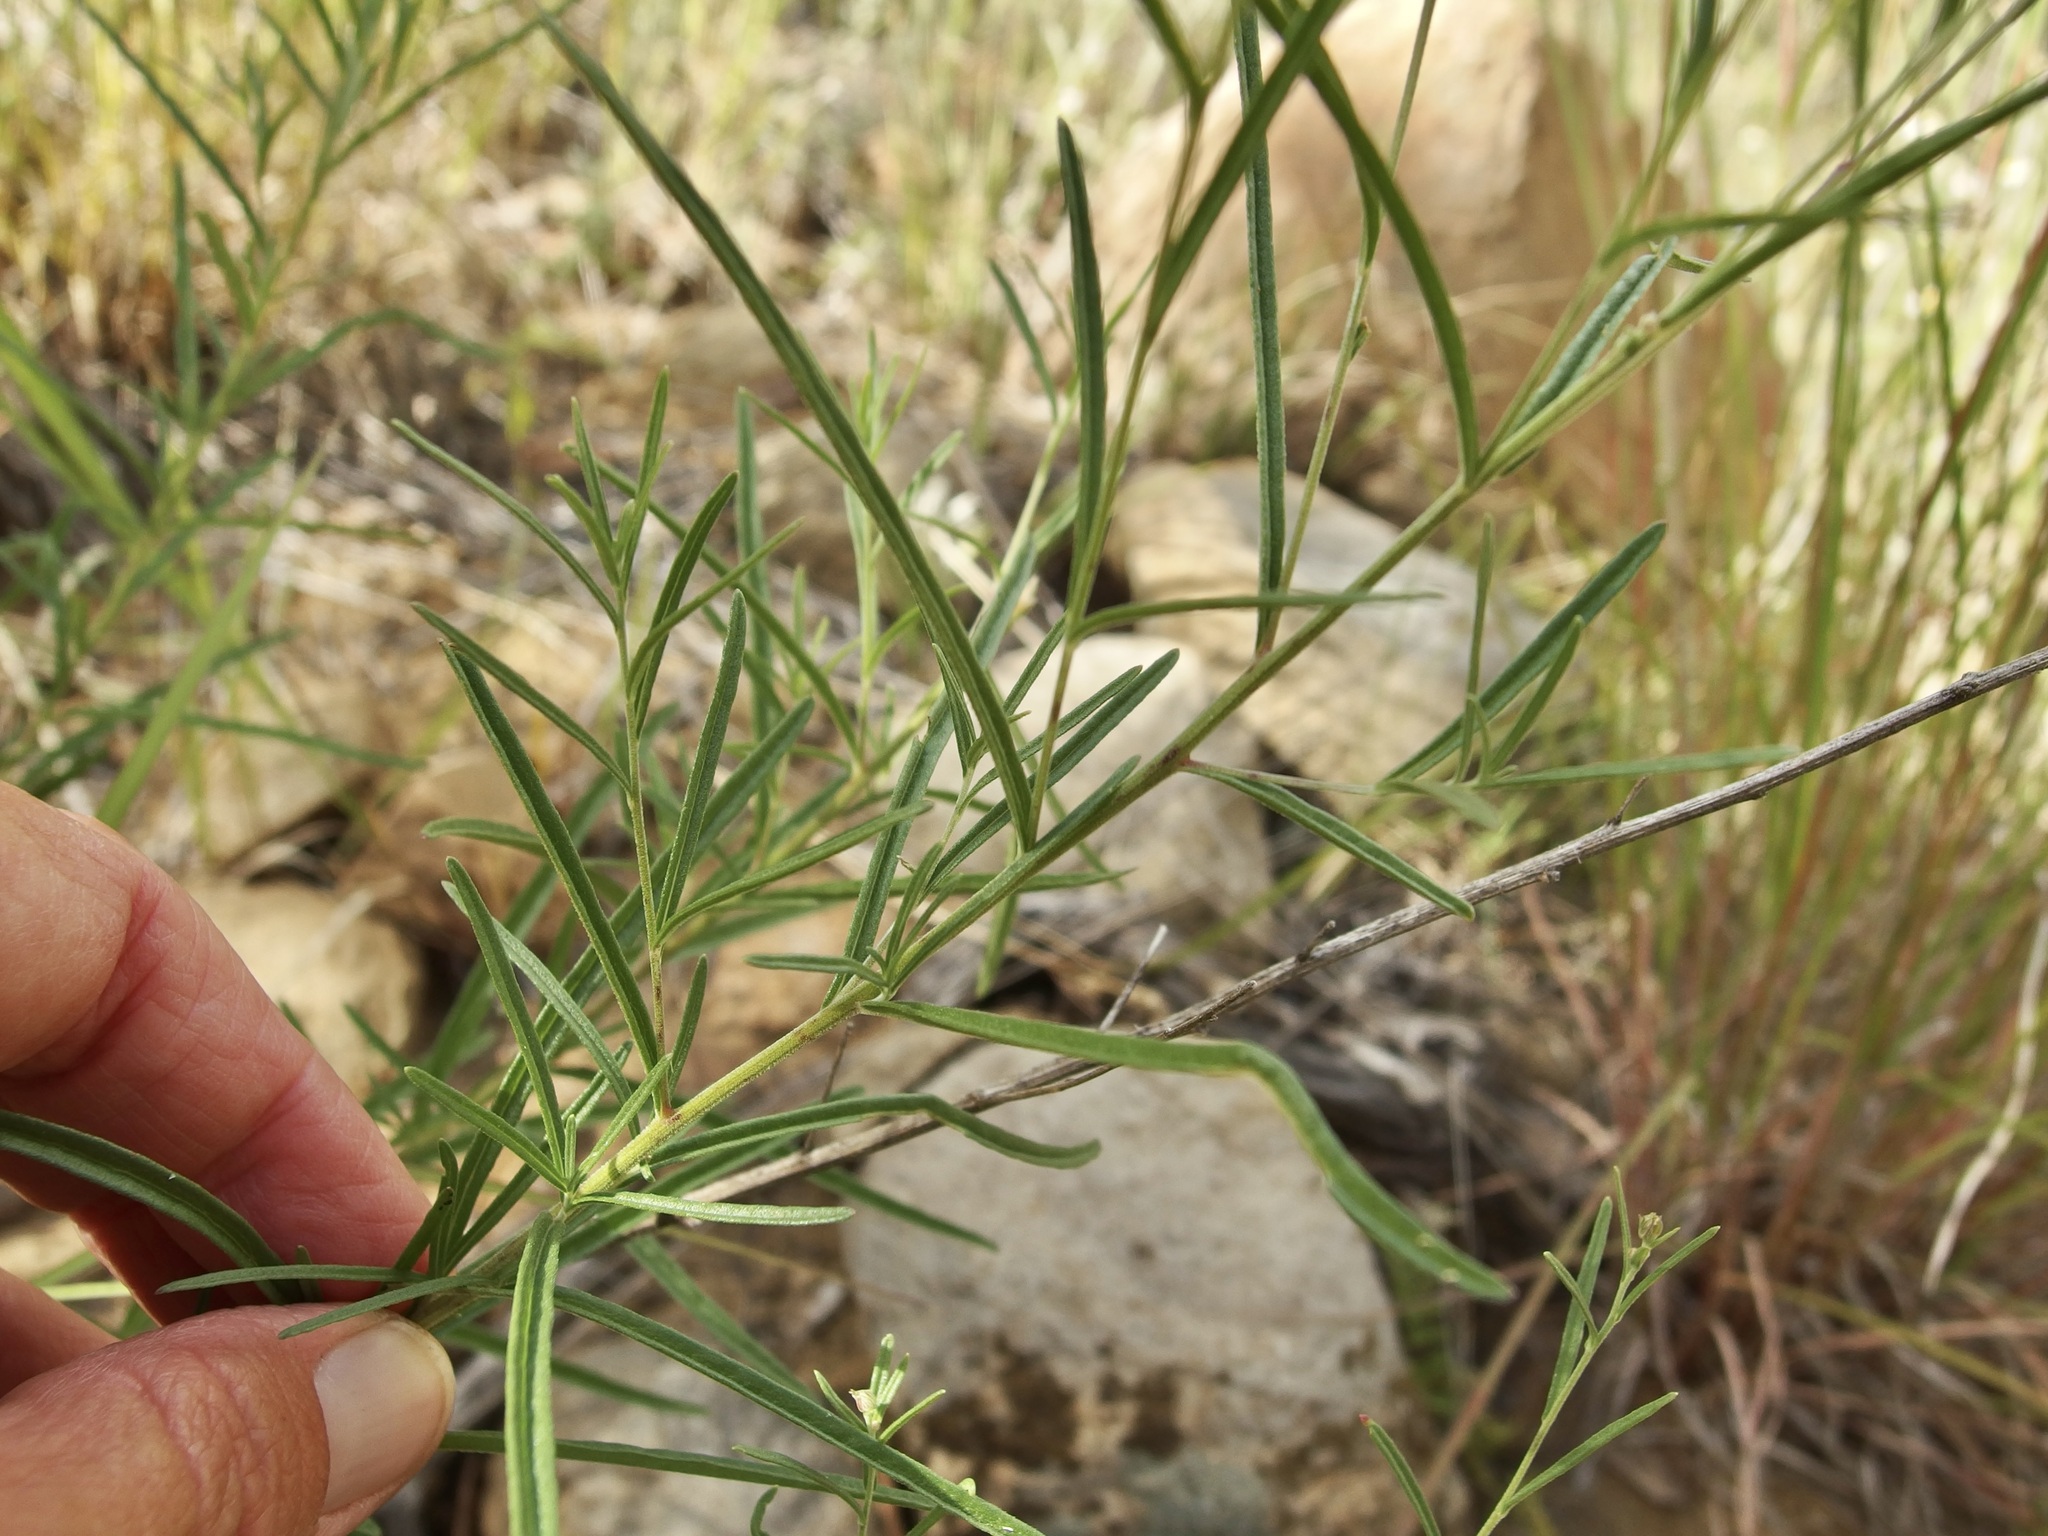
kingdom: Plantae
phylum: Tracheophyta
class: Magnoliopsida
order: Asterales
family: Asteraceae
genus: Brickellia
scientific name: Brickellia eupatorioides
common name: False boneset
